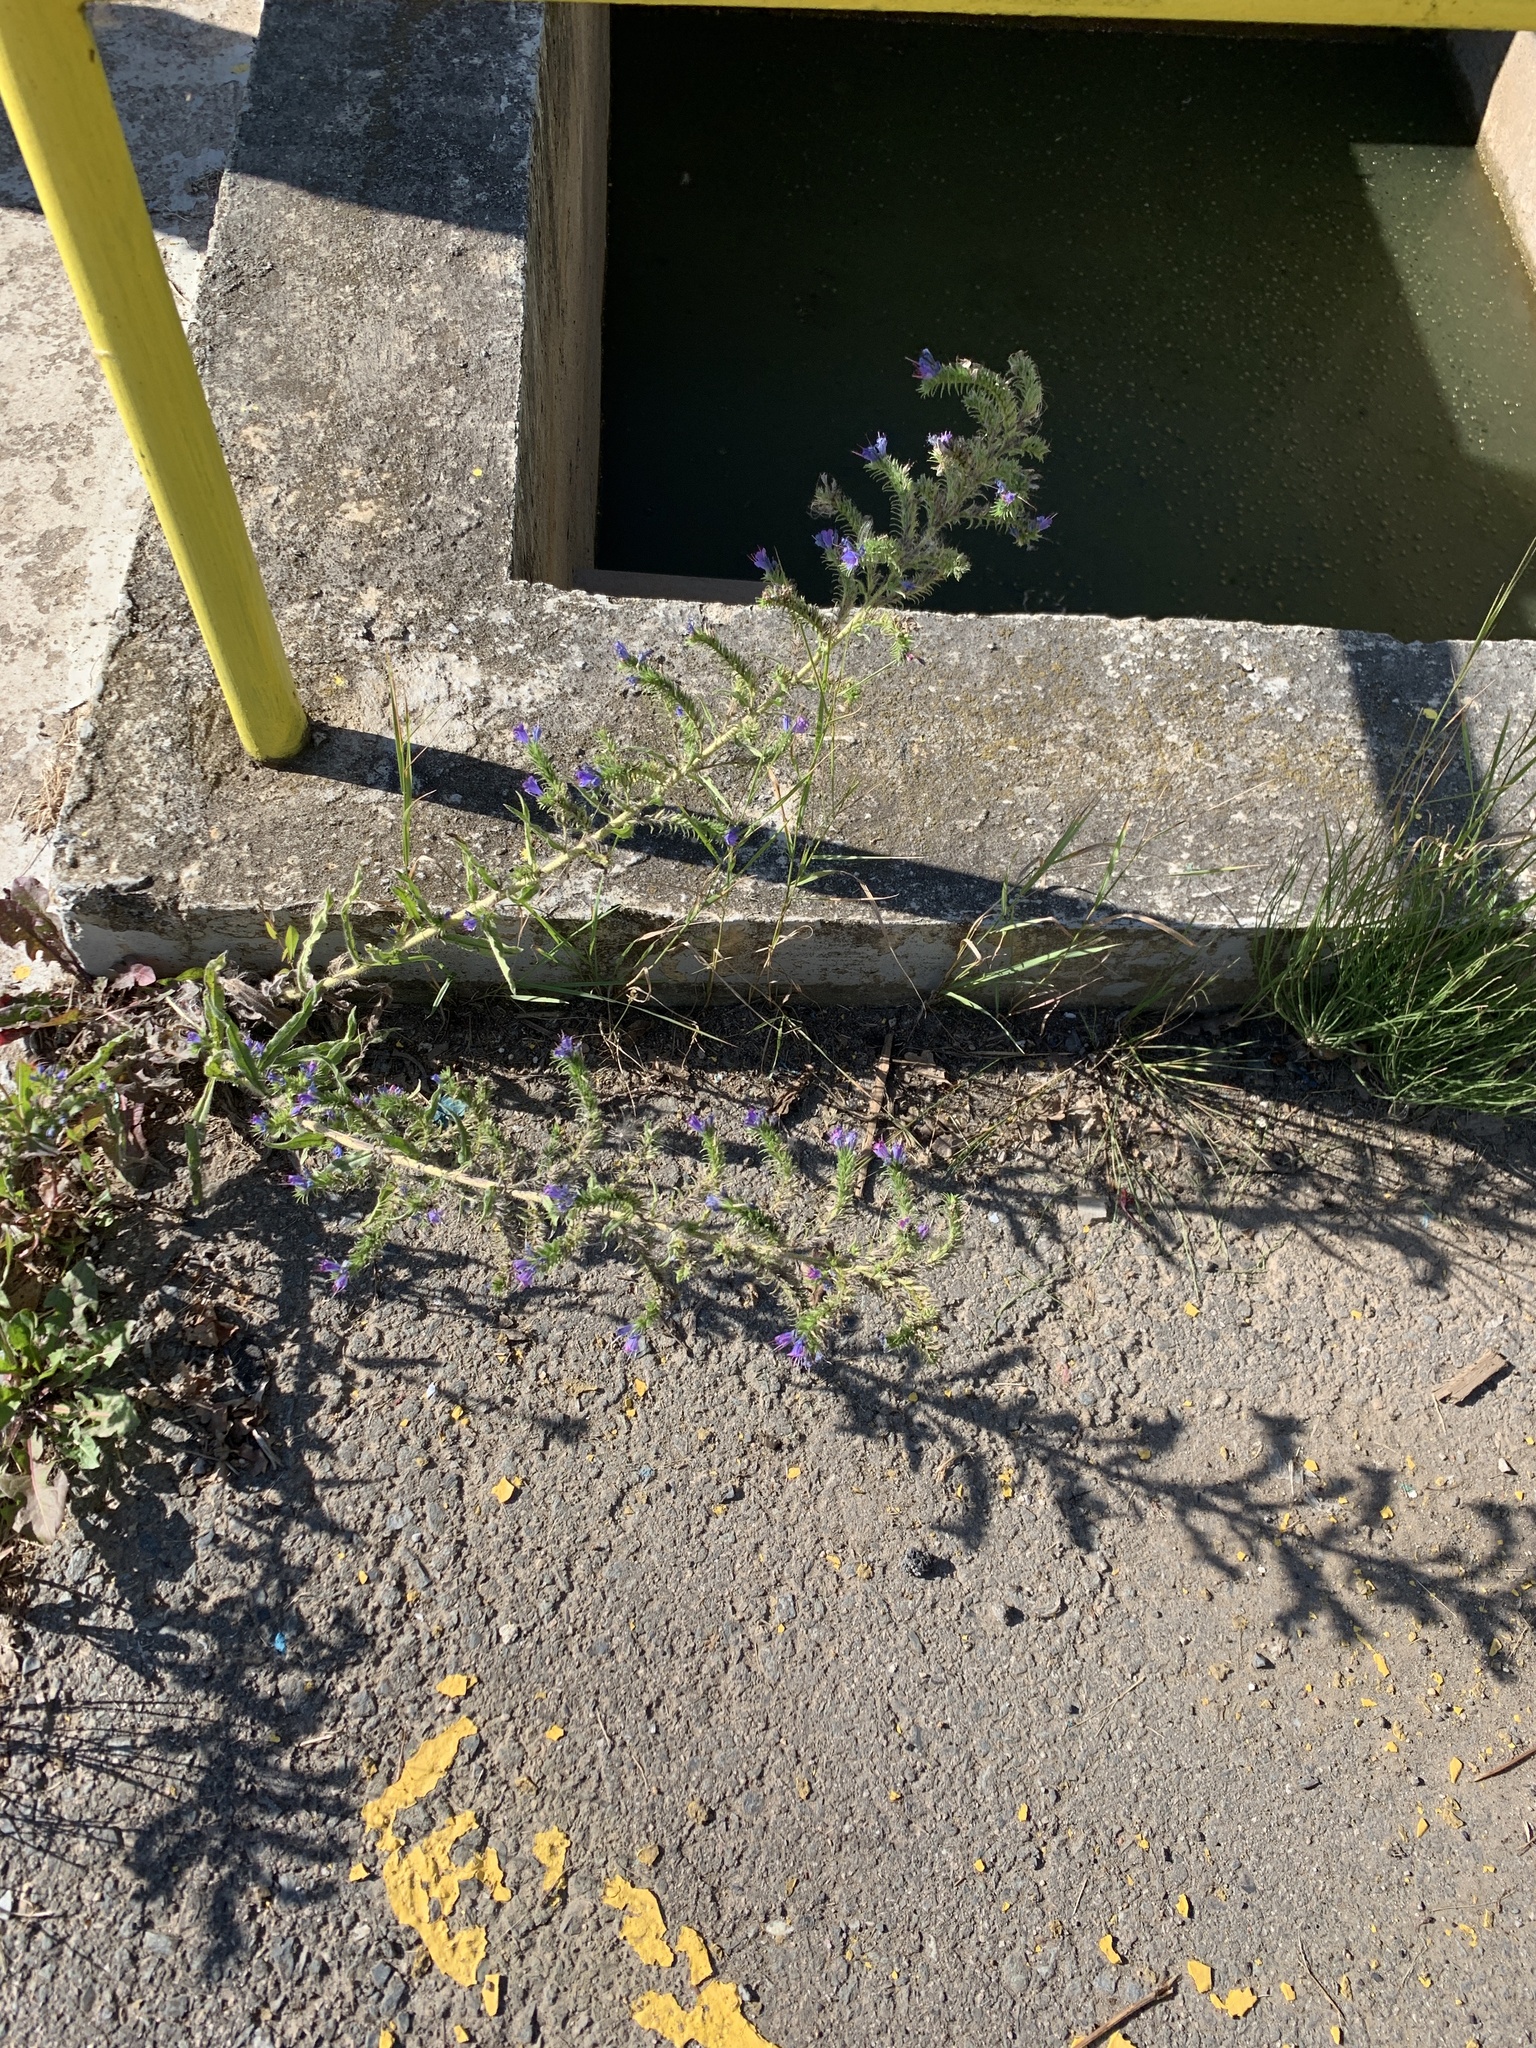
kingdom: Plantae
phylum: Tracheophyta
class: Magnoliopsida
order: Boraginales
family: Boraginaceae
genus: Echium
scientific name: Echium vulgare
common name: Common viper's bugloss
